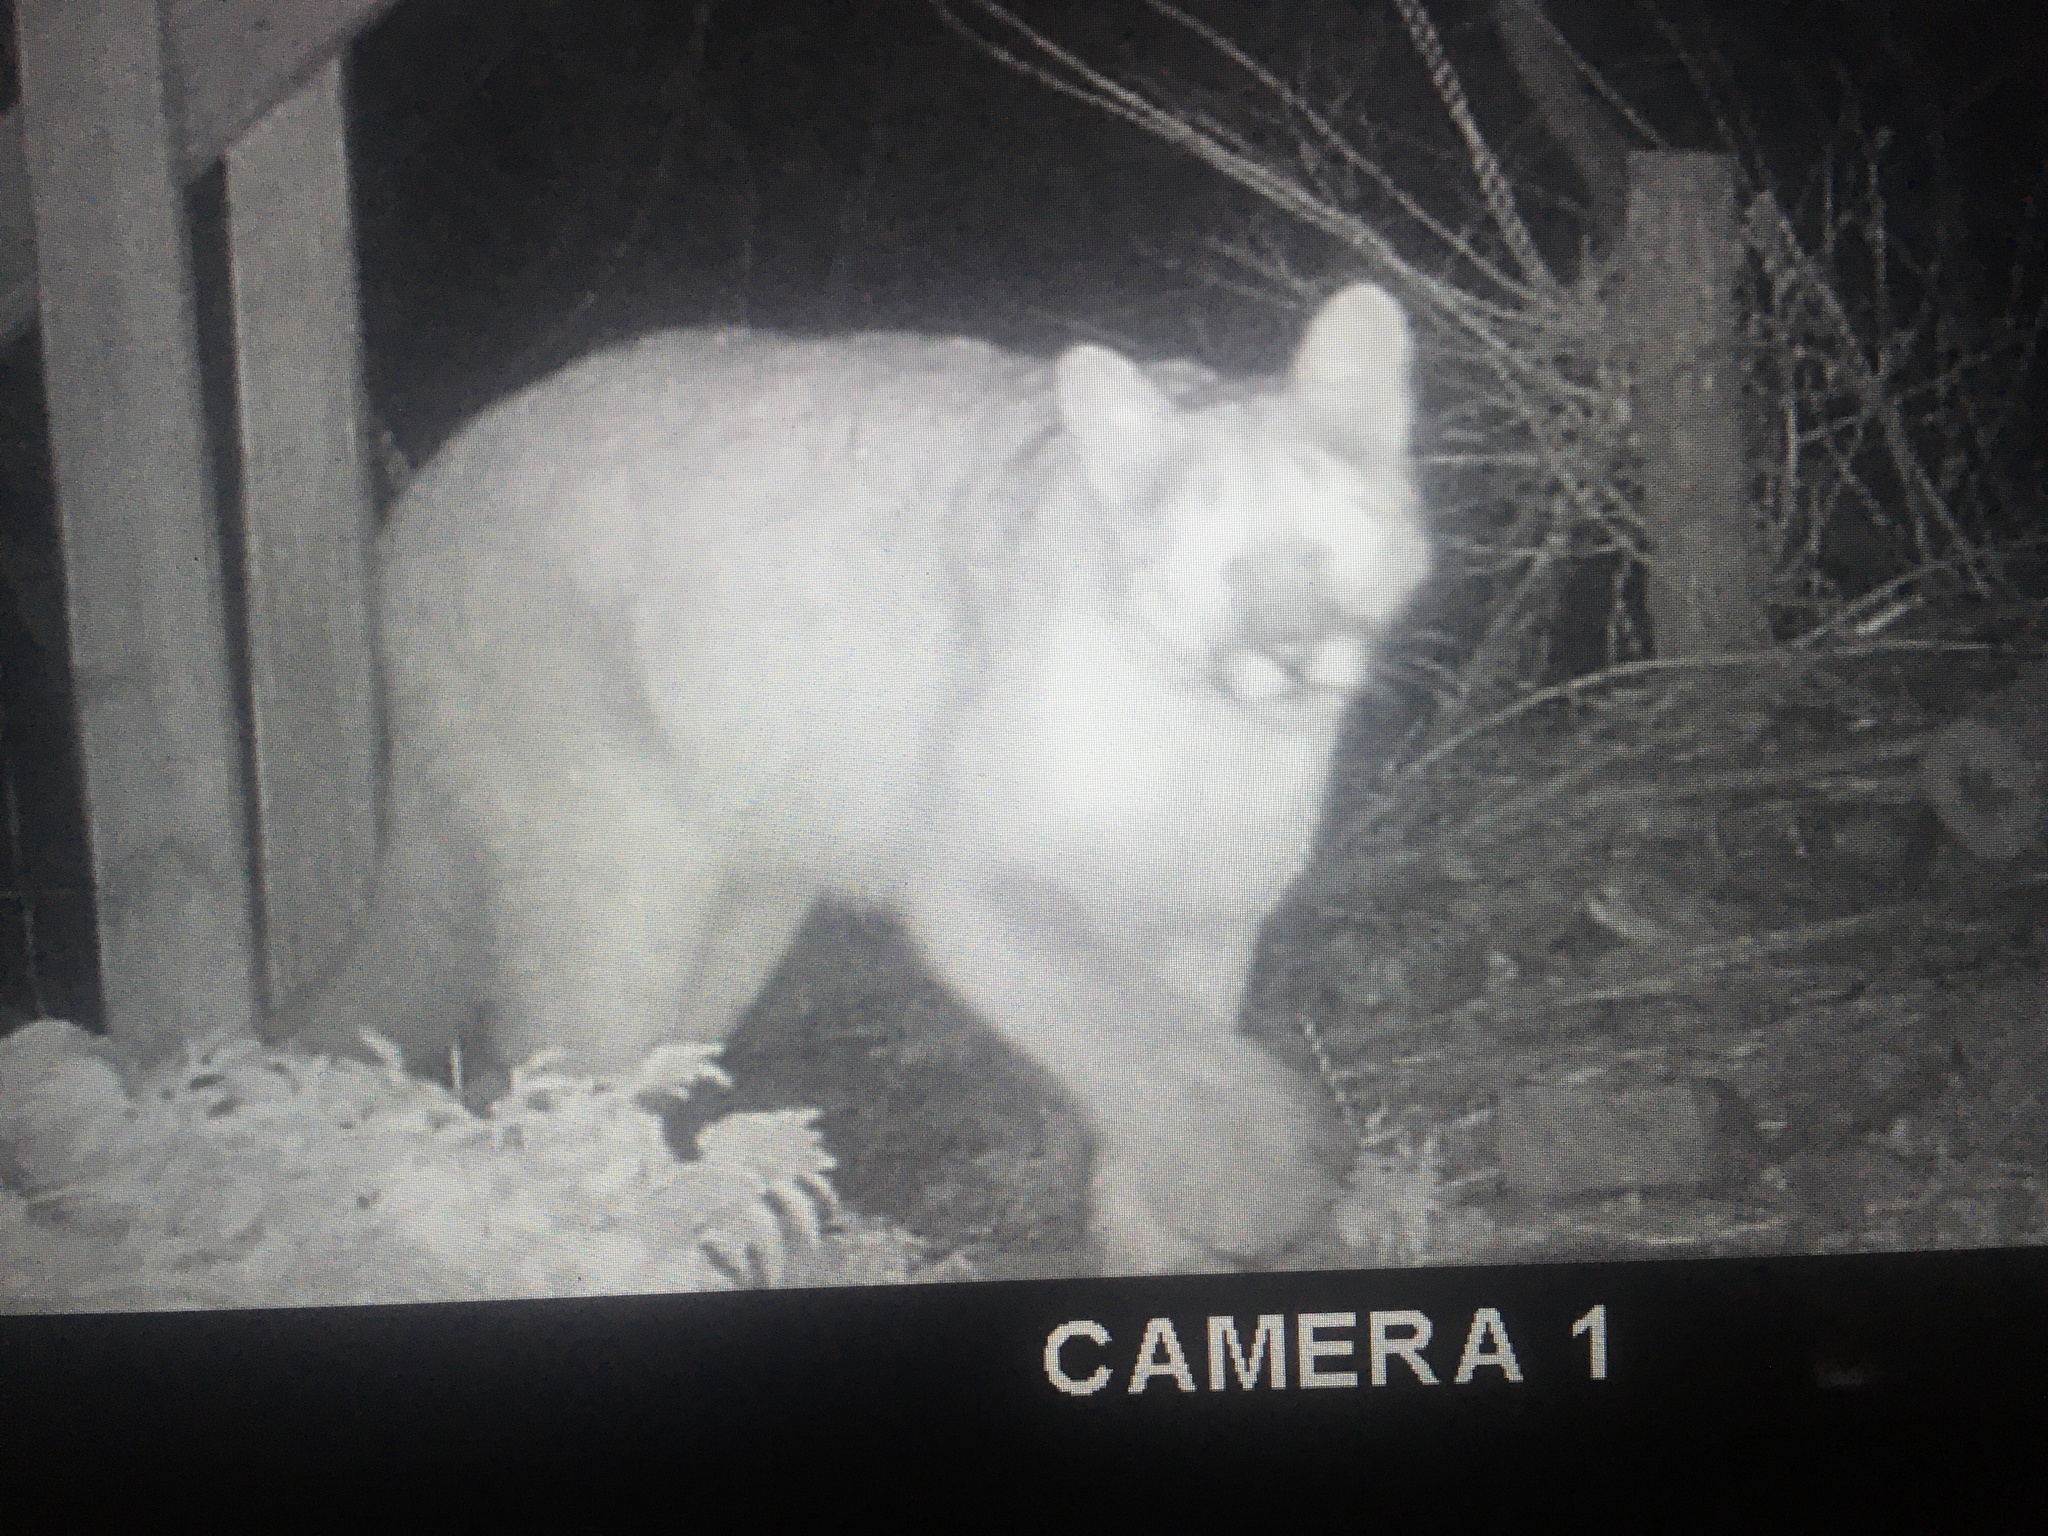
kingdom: Animalia
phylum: Chordata
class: Mammalia
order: Carnivora
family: Felidae
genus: Puma
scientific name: Puma concolor
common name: Puma
